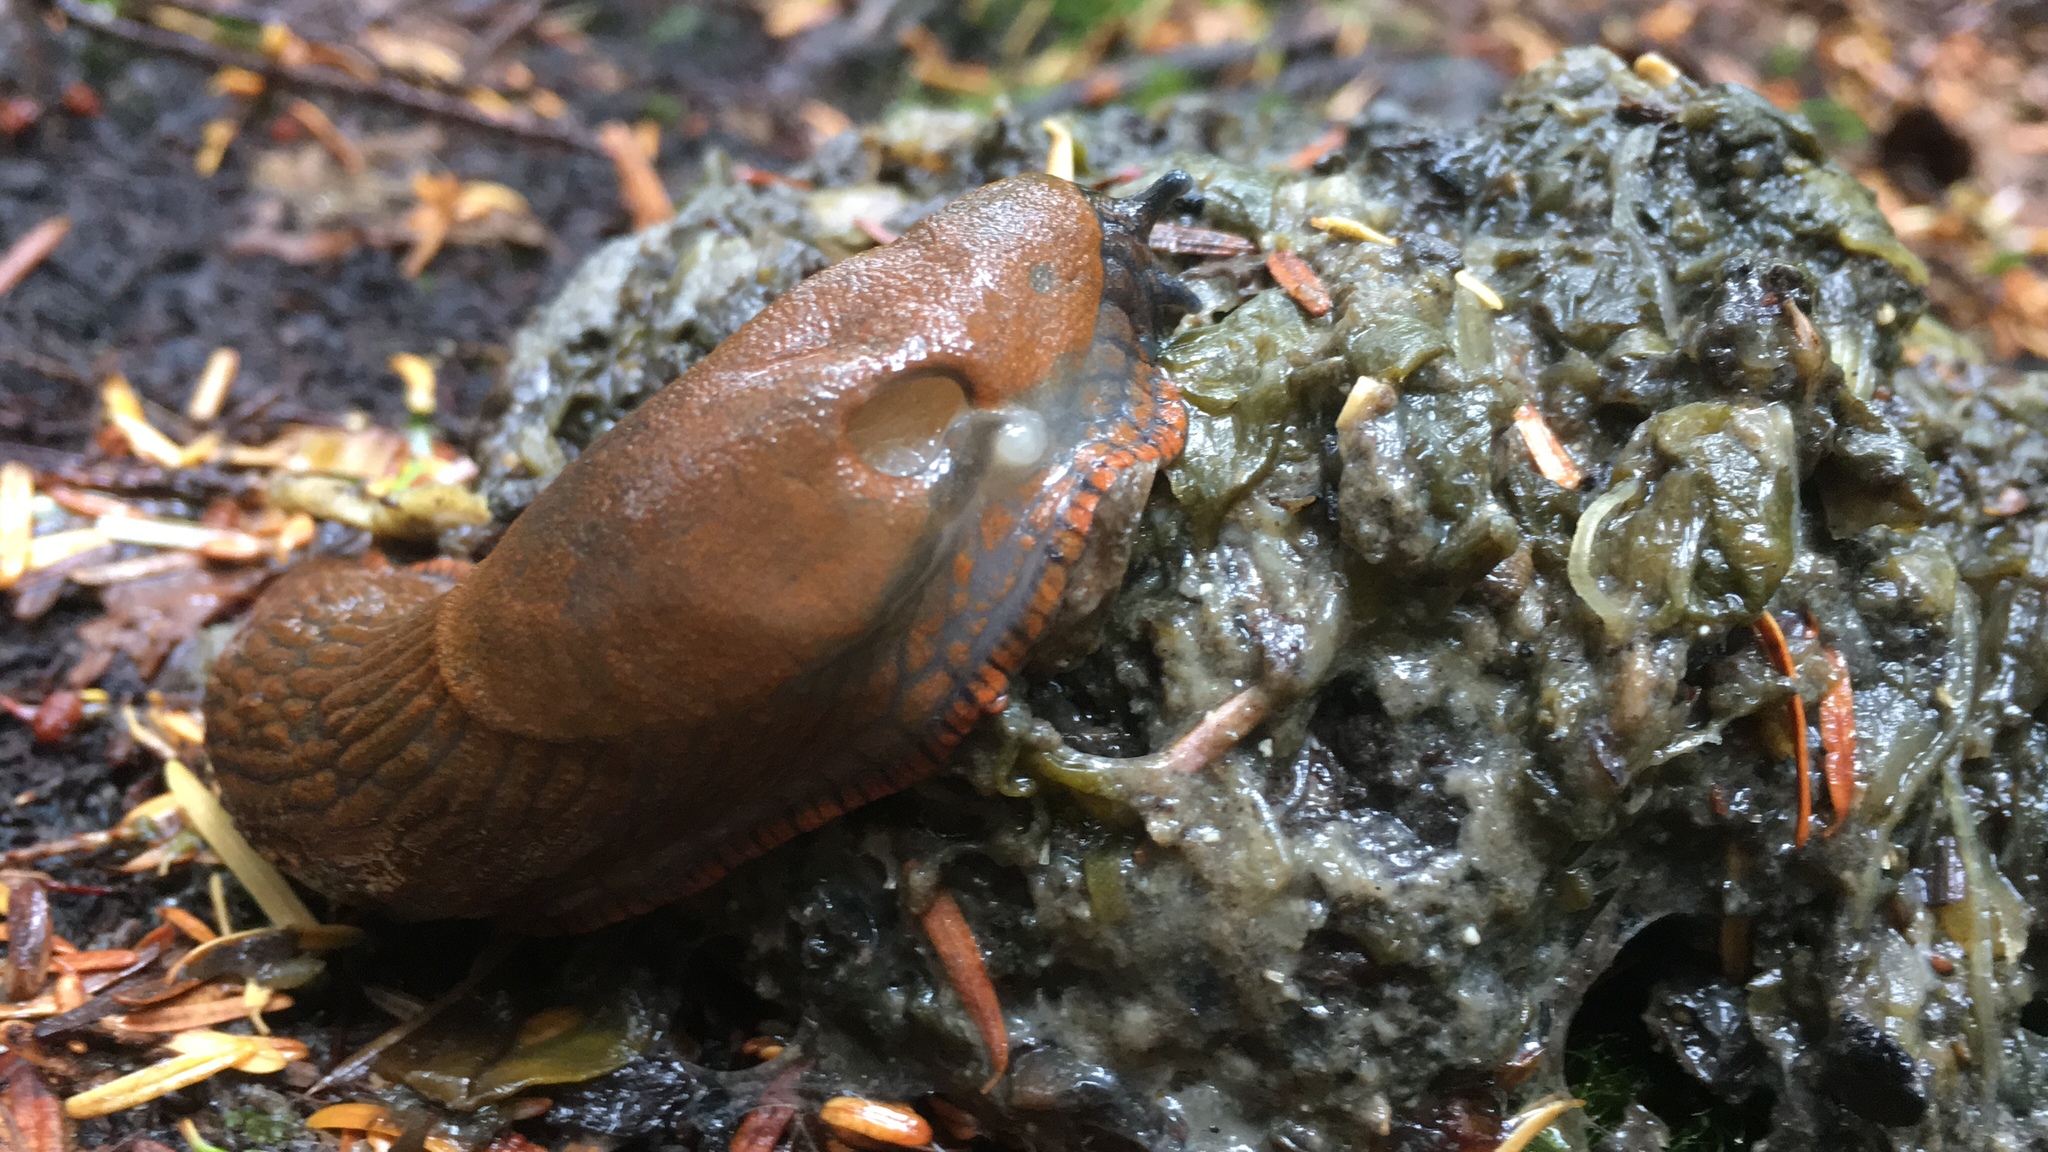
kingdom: Animalia
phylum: Mollusca
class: Gastropoda
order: Stylommatophora
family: Arionidae
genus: Arion
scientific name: Arion
